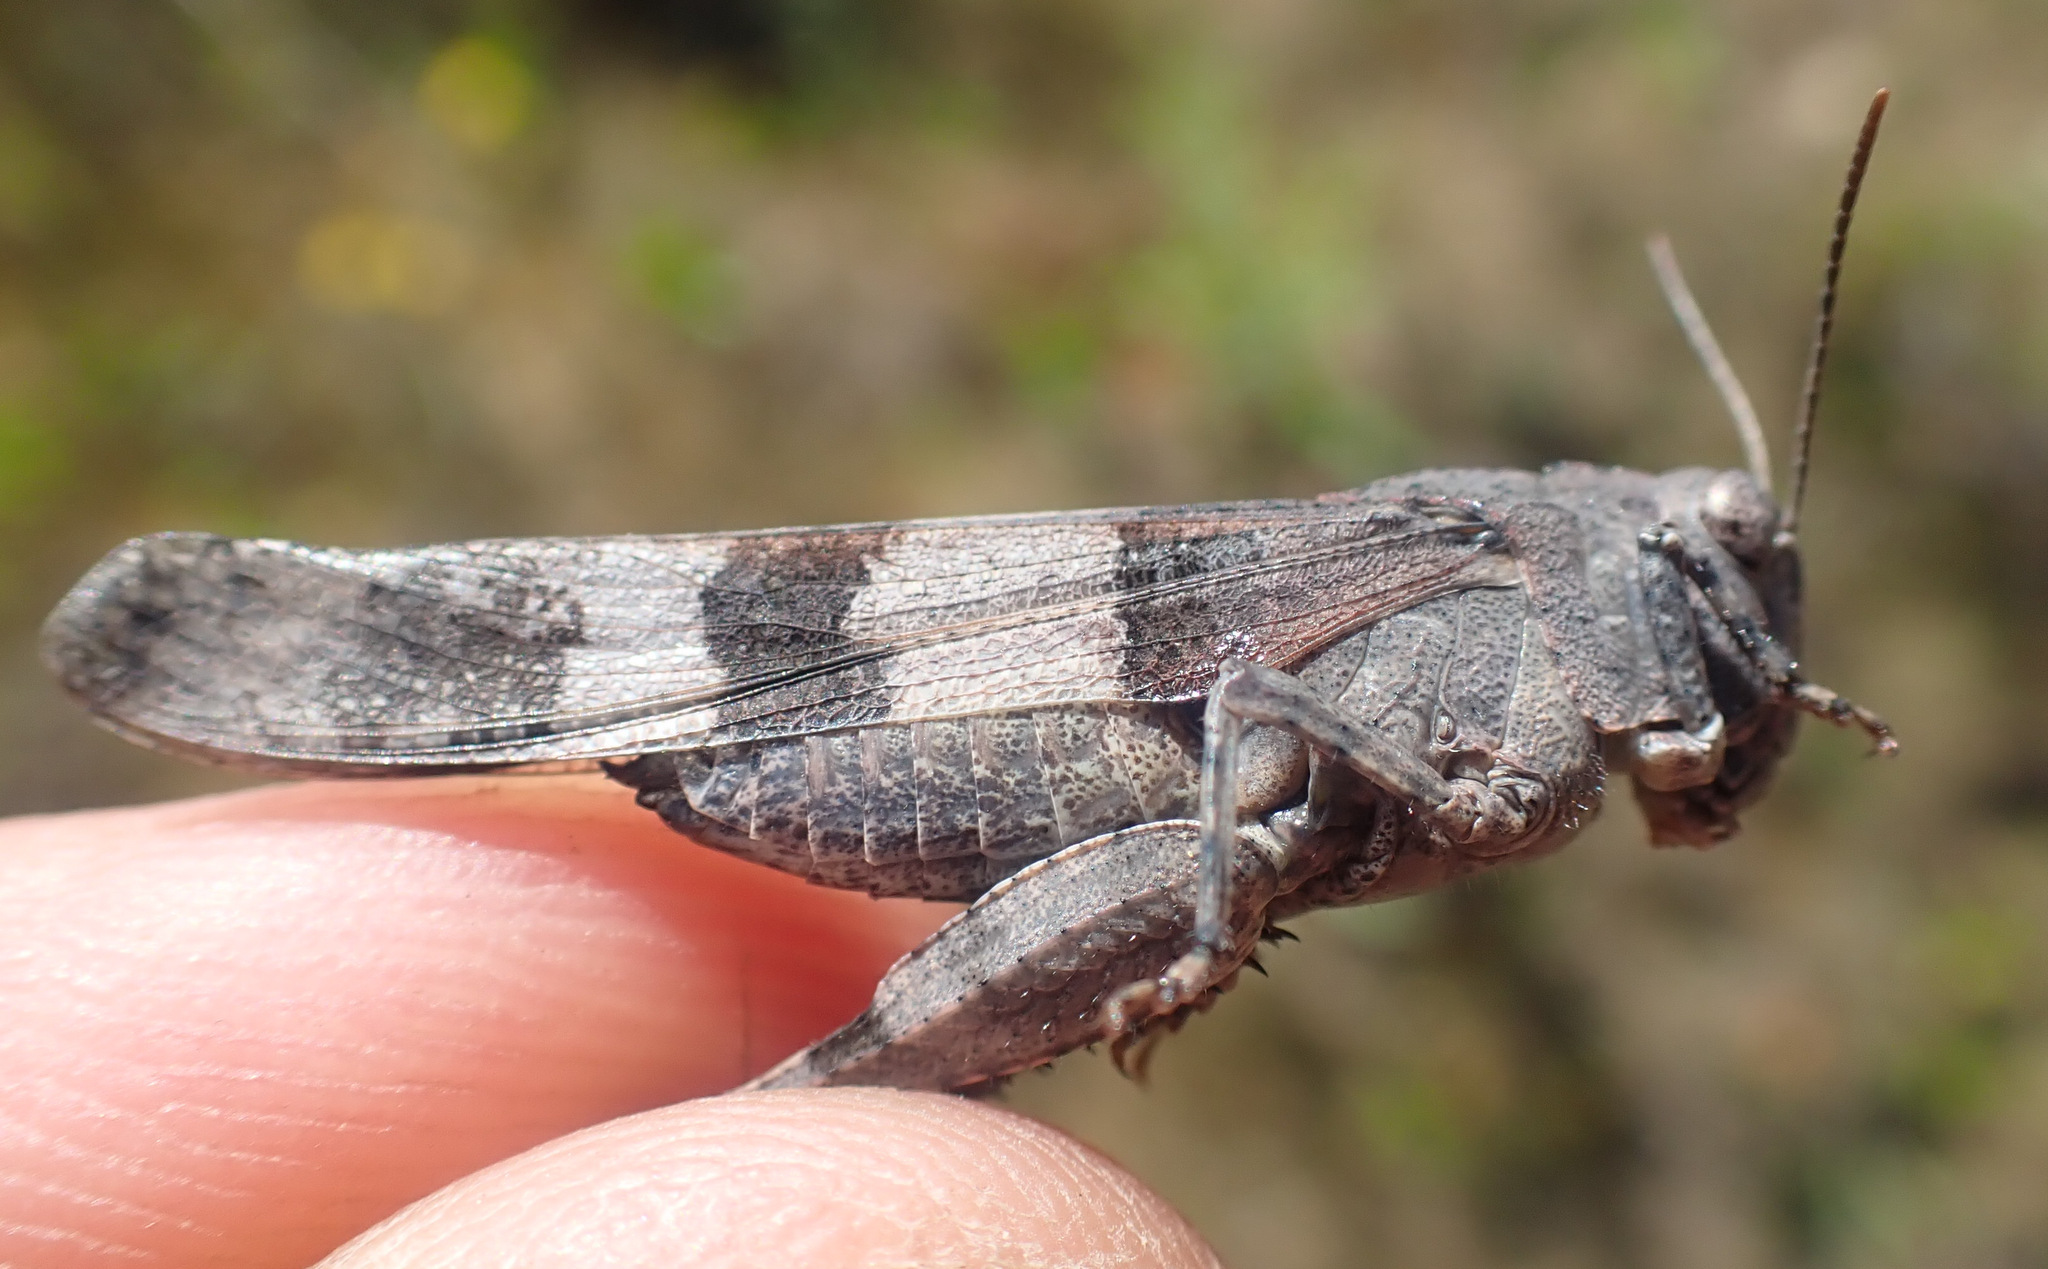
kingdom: Animalia
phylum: Arthropoda
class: Insecta
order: Orthoptera
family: Acrididae
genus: Oedipoda
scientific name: Oedipoda caerulescens
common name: Blue-winged grasshopper
